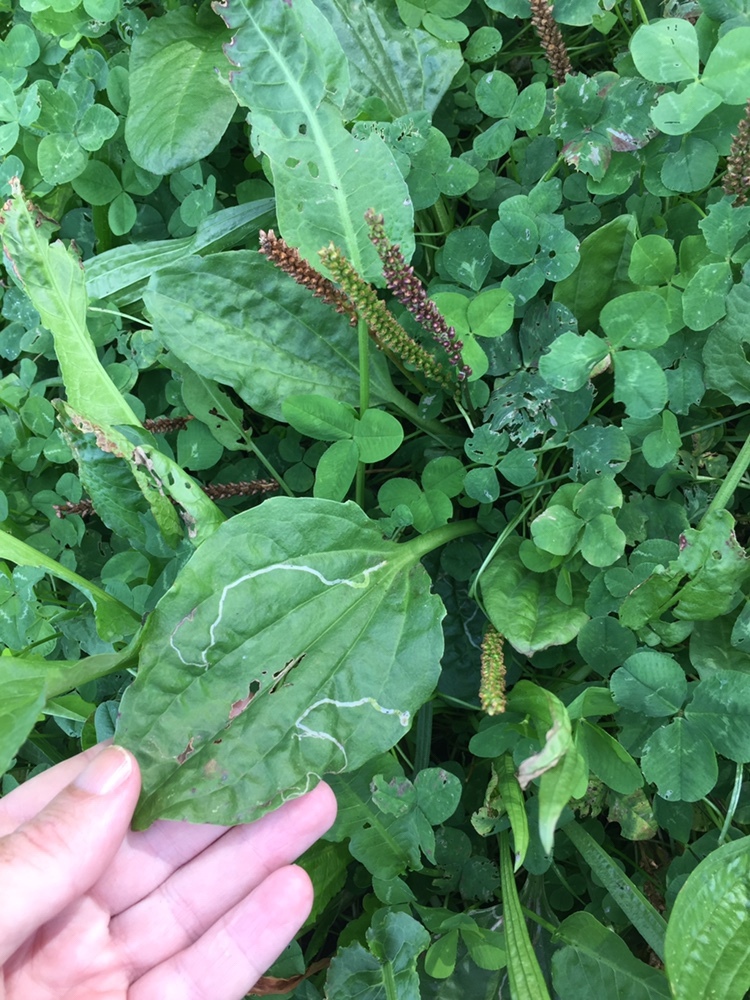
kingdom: Plantae
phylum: Tracheophyta
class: Magnoliopsida
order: Lamiales
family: Plantaginaceae
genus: Plantago
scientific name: Plantago major
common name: Common plantain
